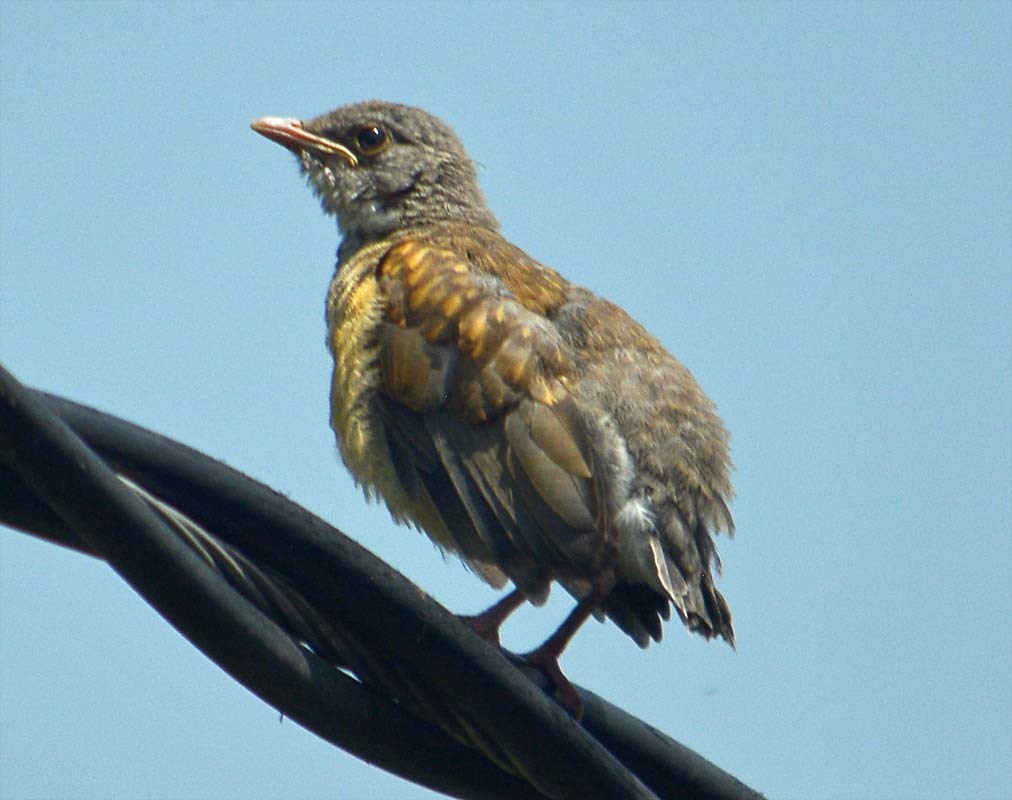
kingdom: Animalia
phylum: Chordata
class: Aves
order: Passeriformes
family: Turdidae
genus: Turdus
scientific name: Turdus rufopalliatus
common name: Rufous-backed robin
